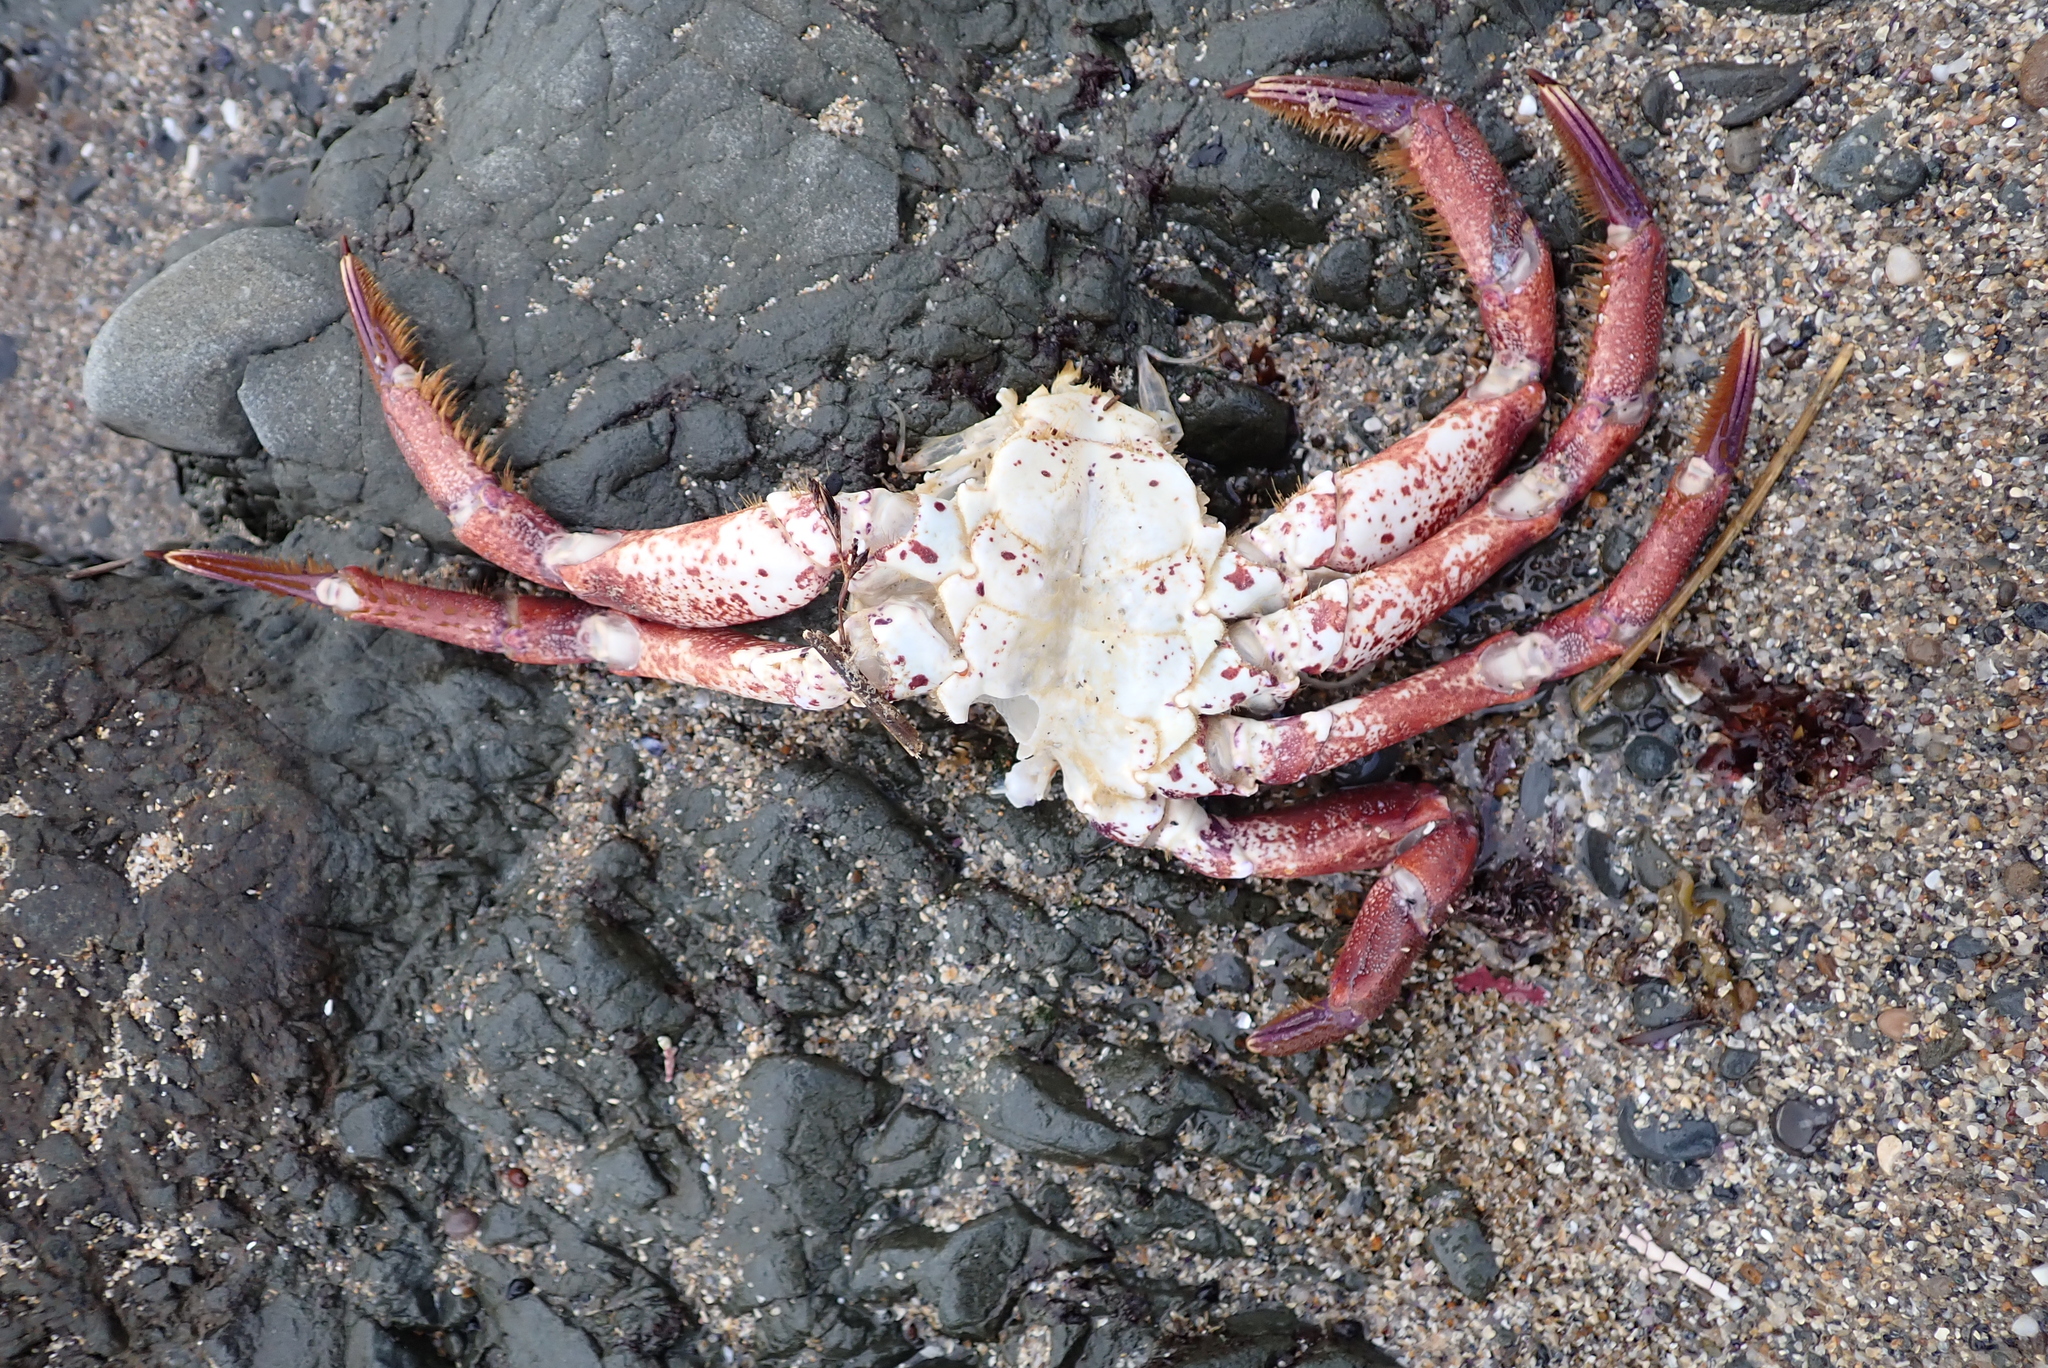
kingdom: Animalia
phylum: Arthropoda
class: Malacostraca
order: Decapoda
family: Cancridae
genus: Romaleon
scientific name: Romaleon antennarium
